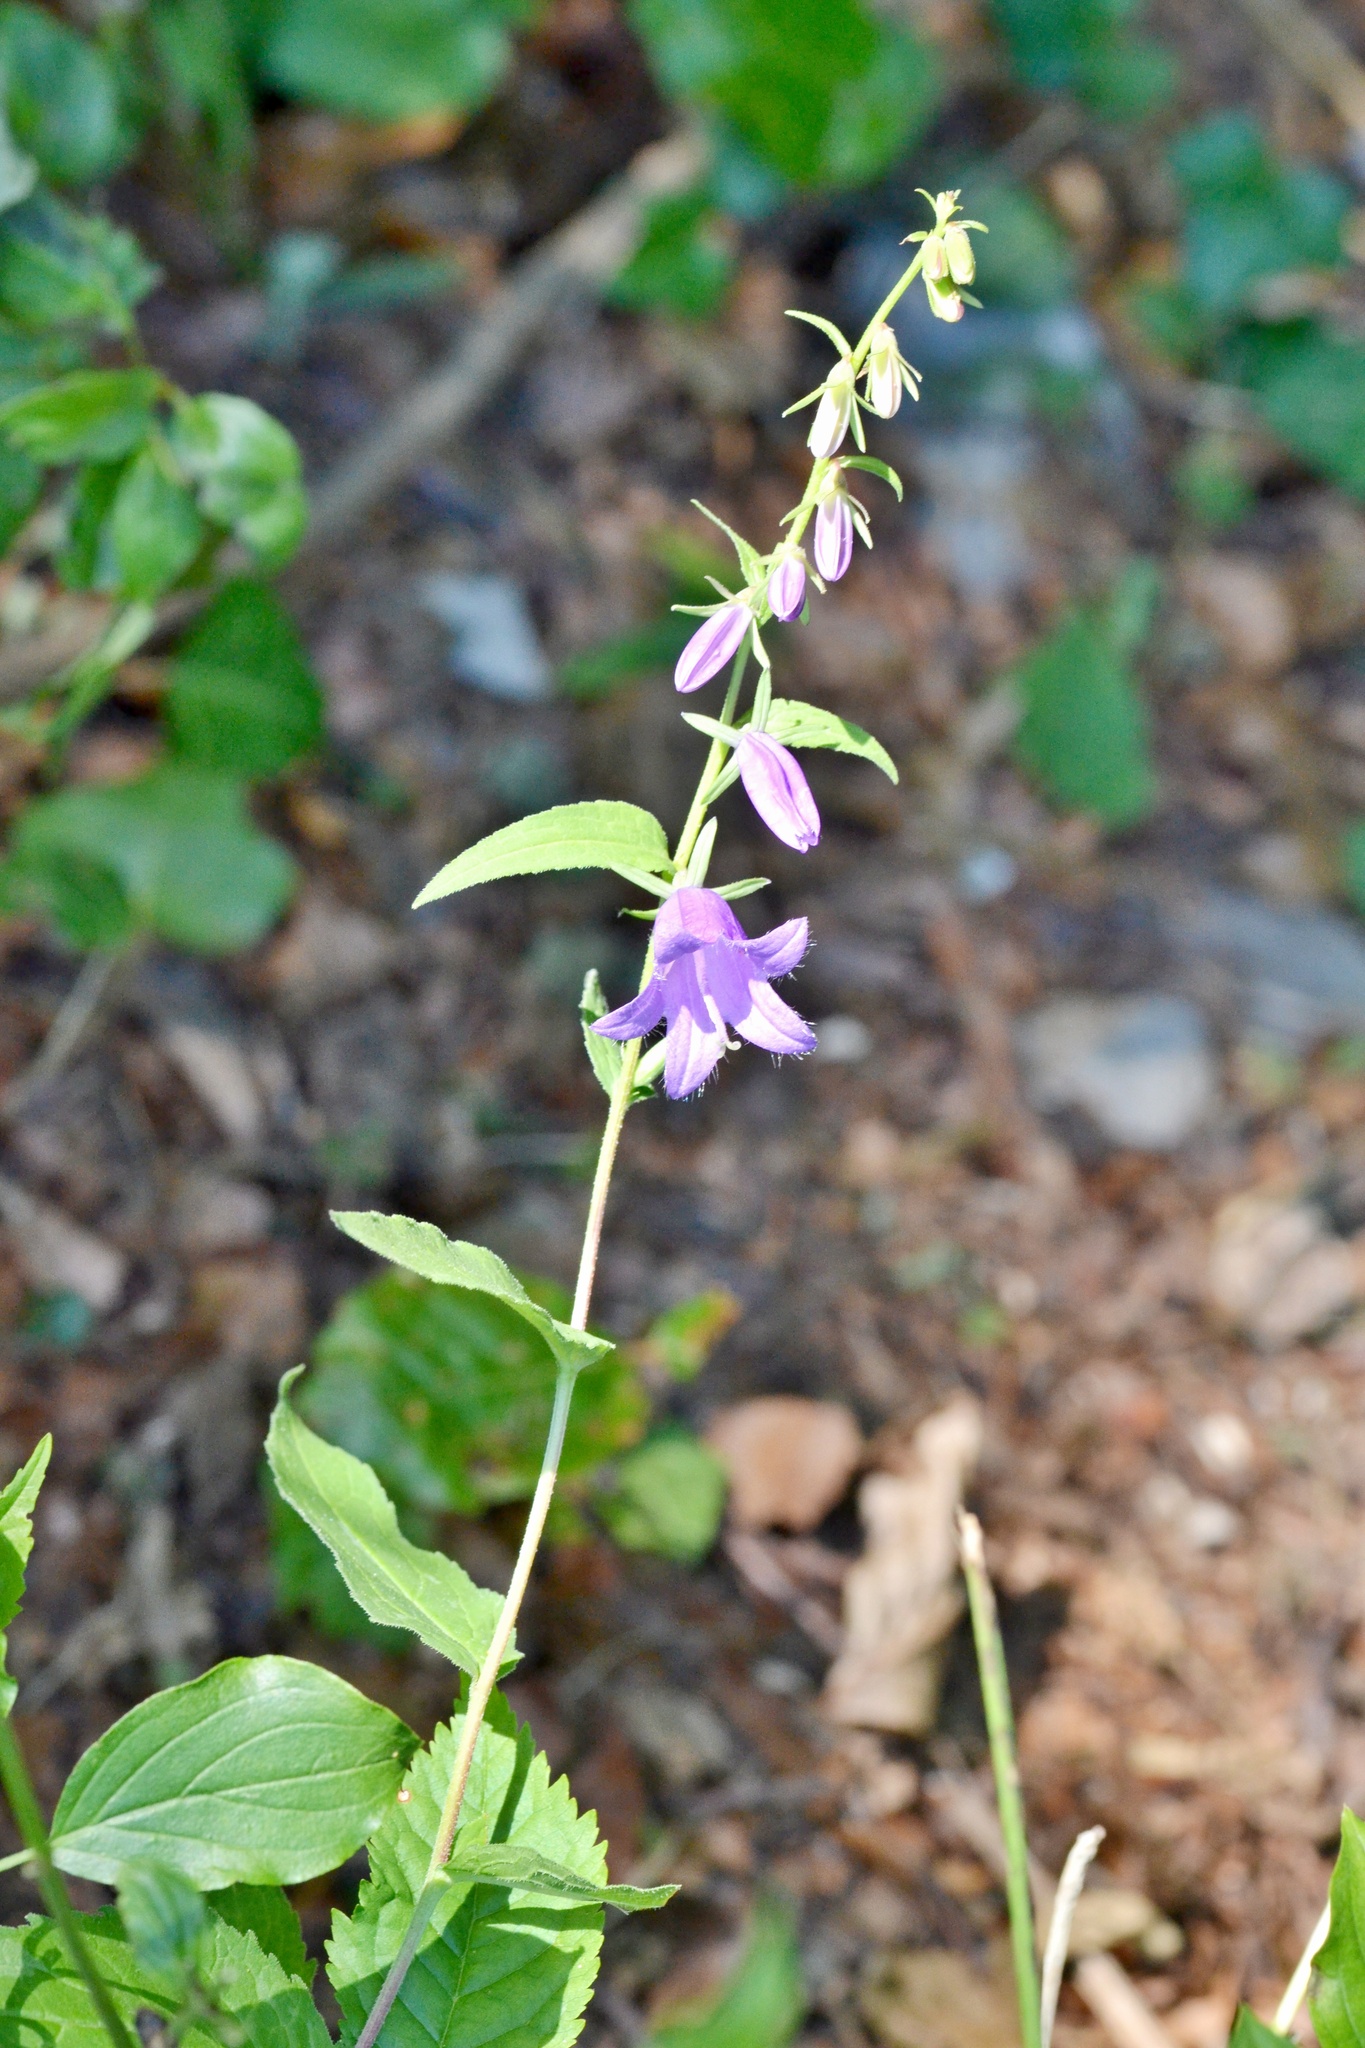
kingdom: Plantae
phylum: Tracheophyta
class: Magnoliopsida
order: Asterales
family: Campanulaceae
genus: Campanula
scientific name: Campanula rapunculoides
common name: Creeping bellflower
